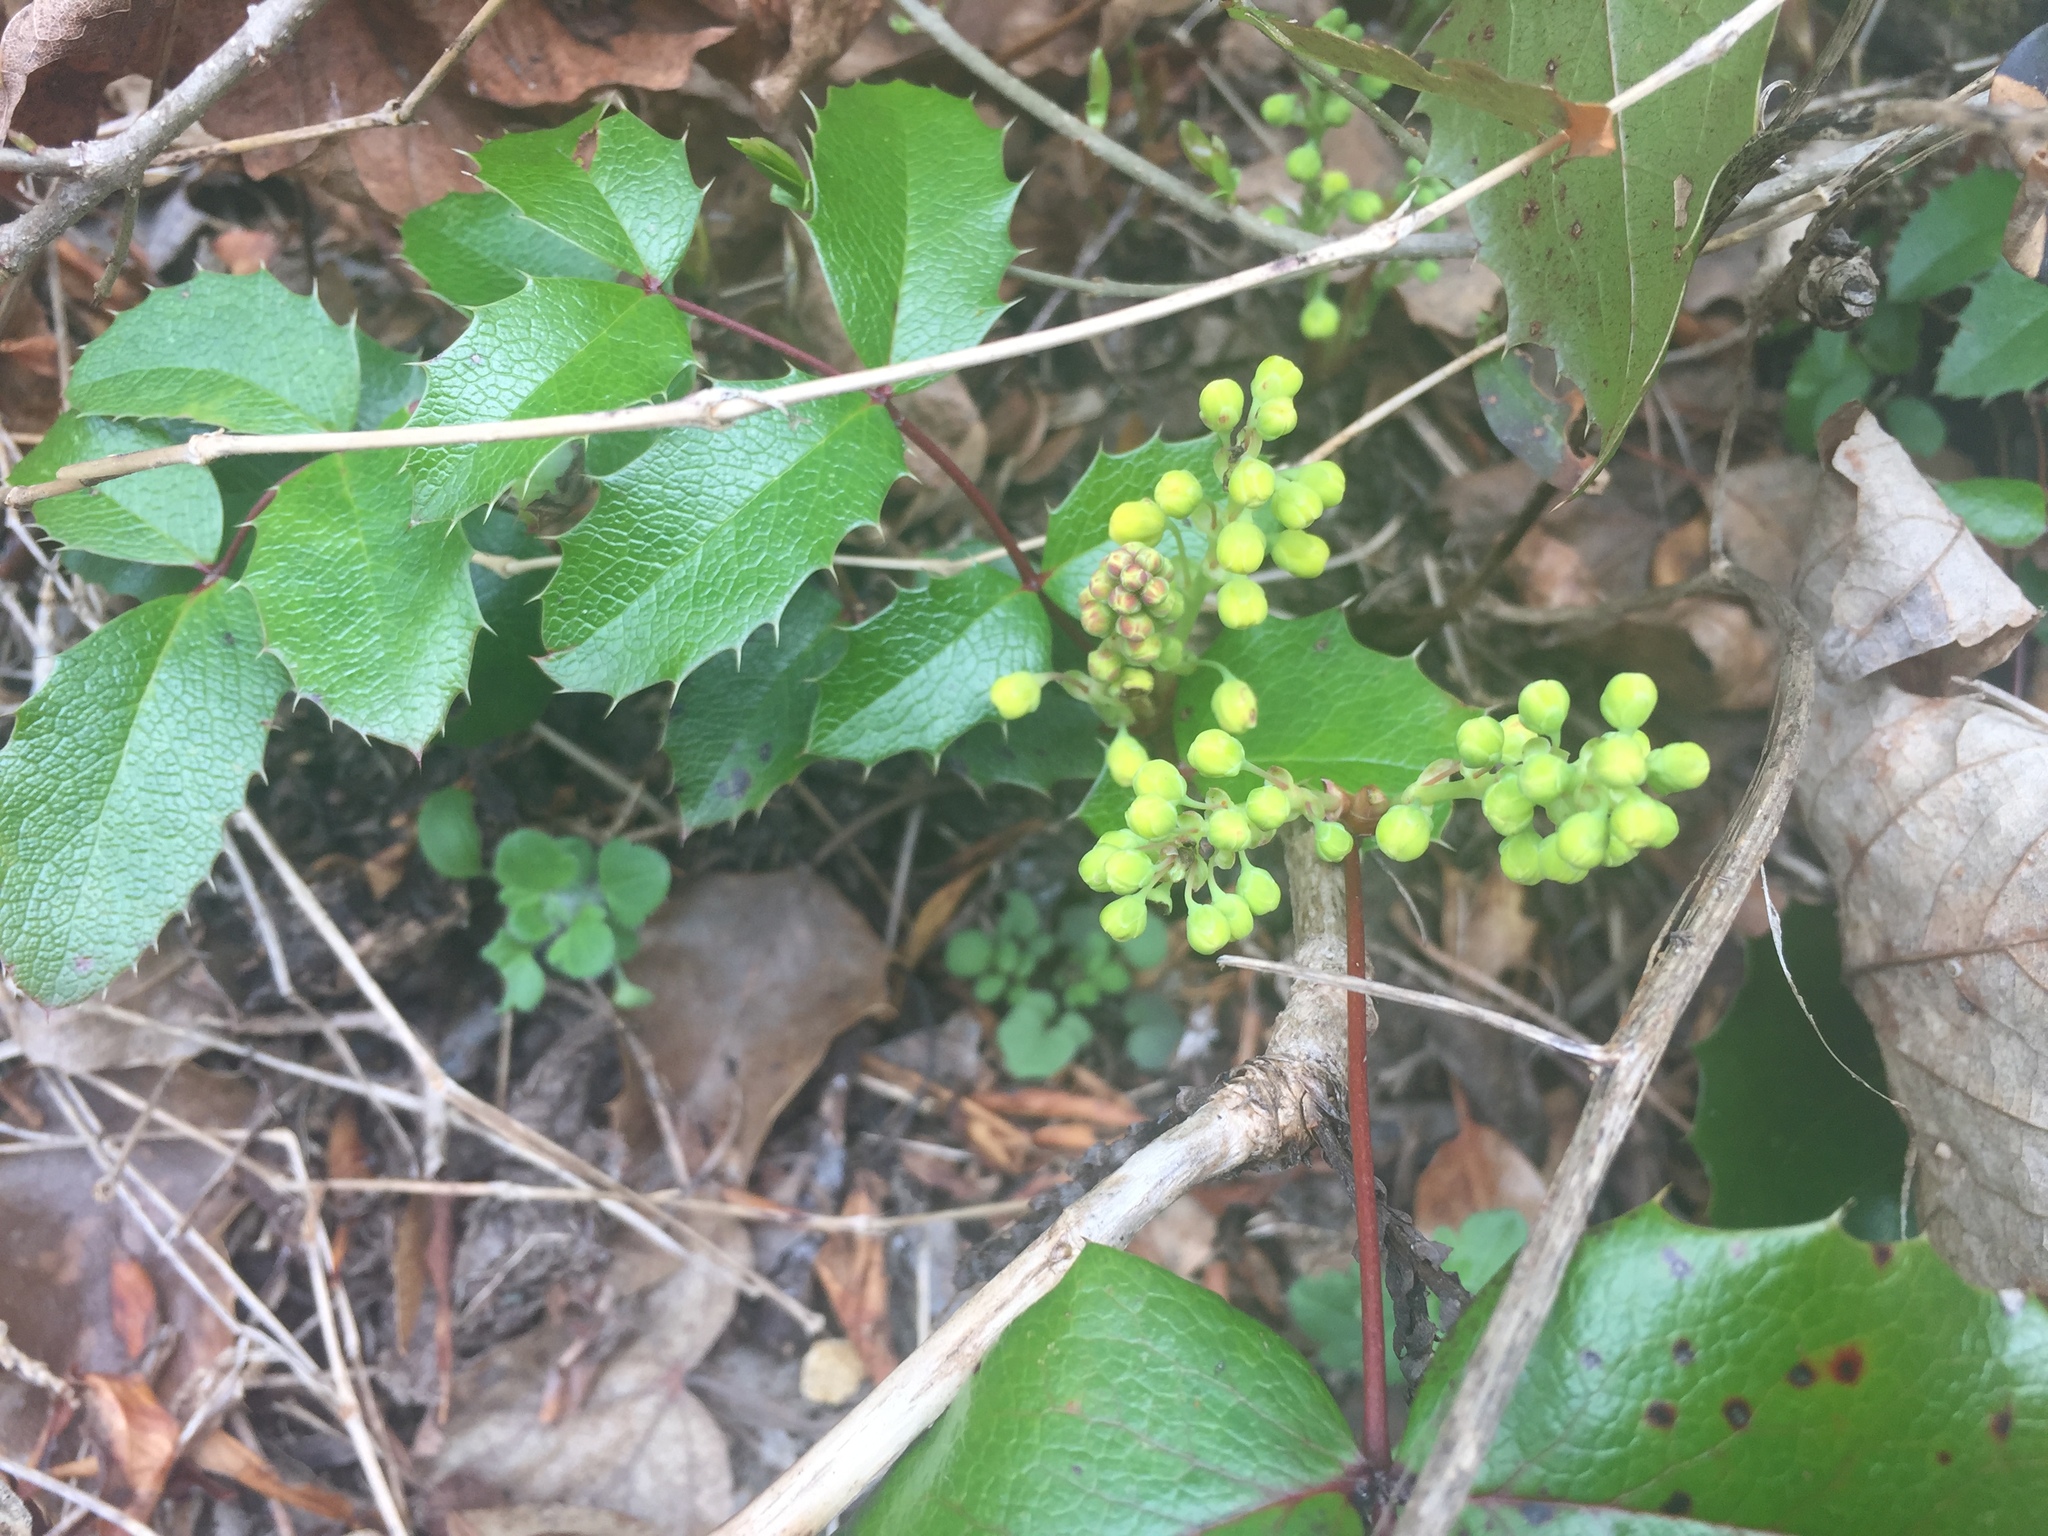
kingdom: Plantae
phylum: Tracheophyta
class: Magnoliopsida
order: Ranunculales
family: Berberidaceae
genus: Mahonia
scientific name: Mahonia aquifolium
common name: Oregon-grape
